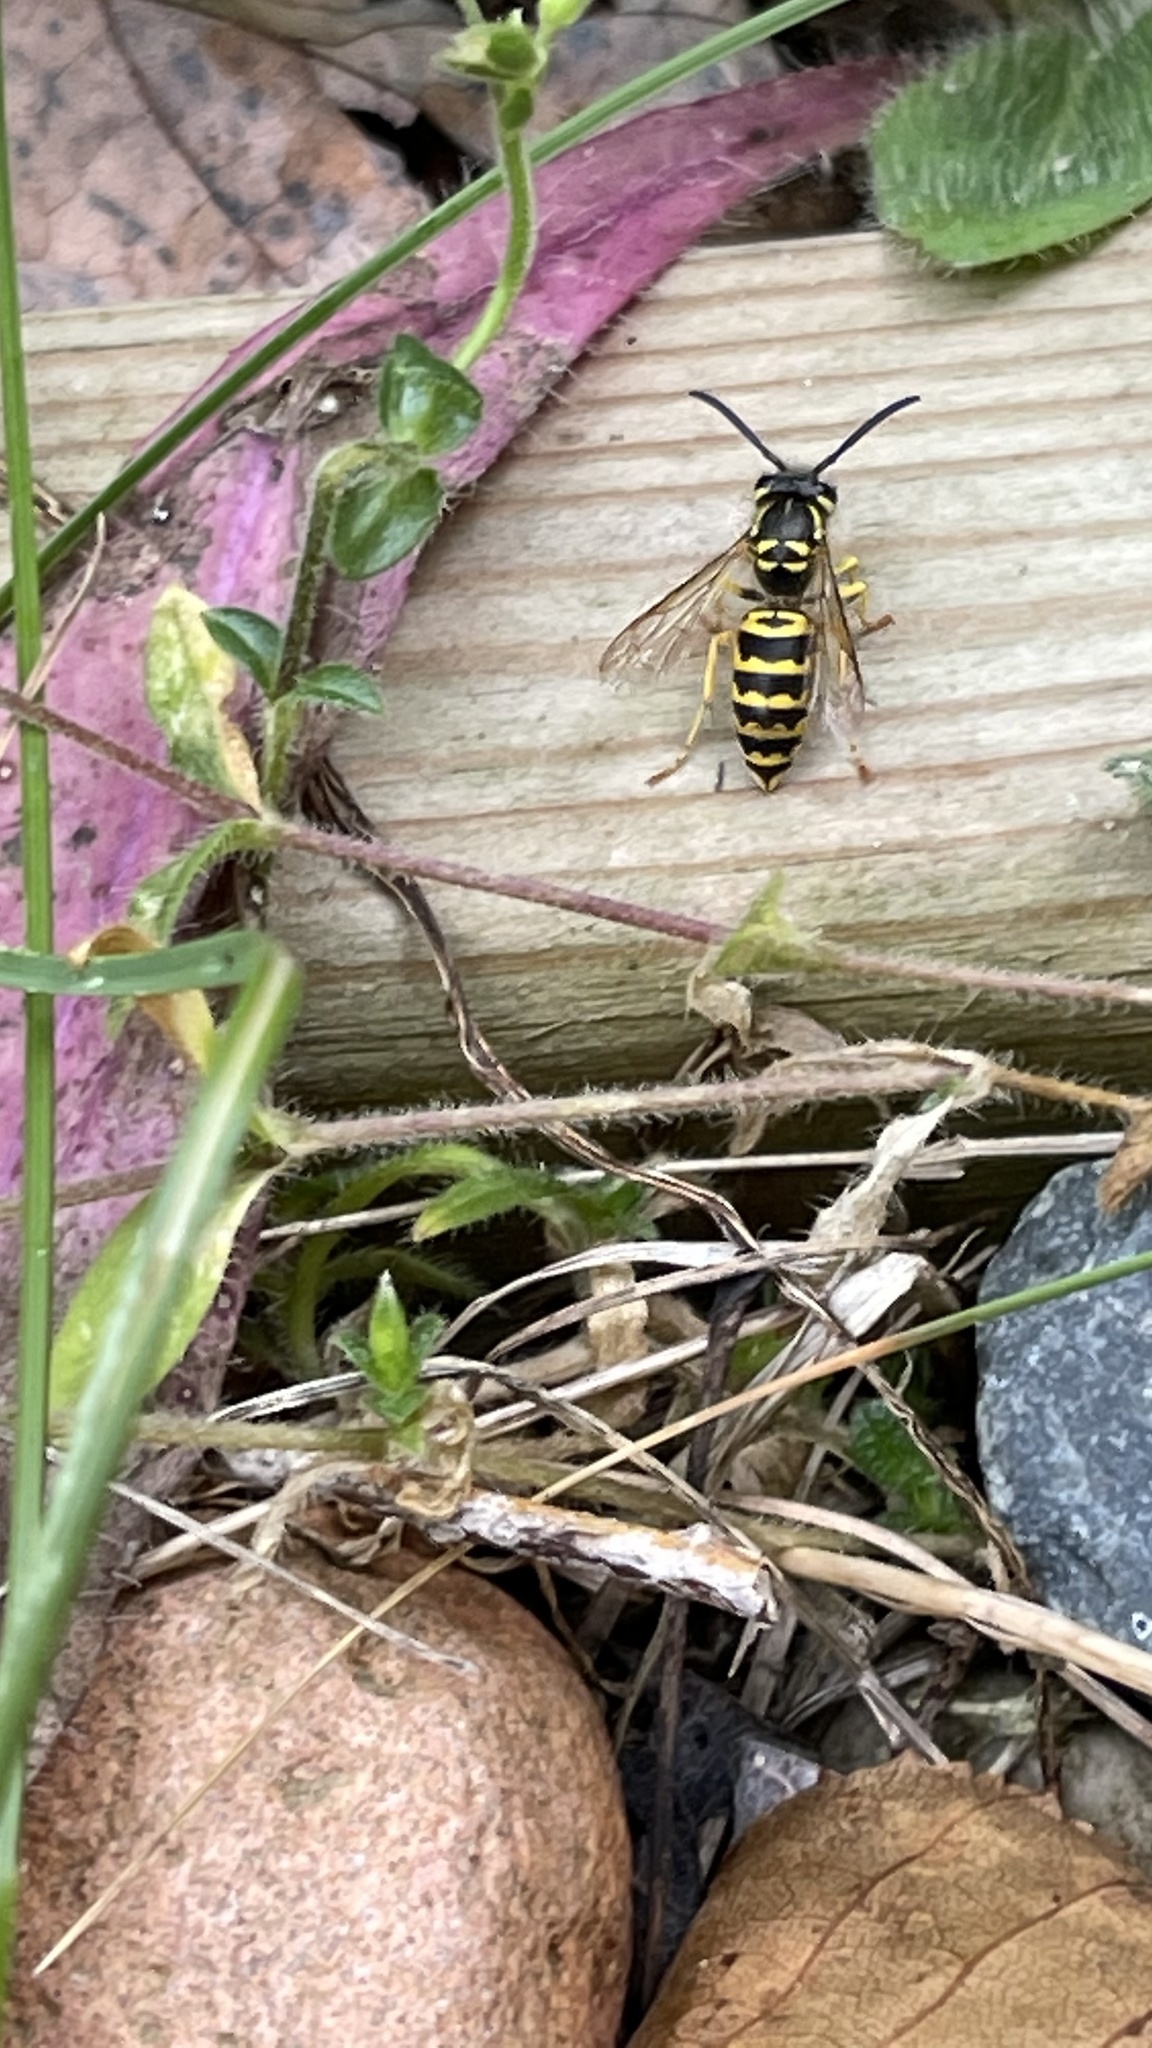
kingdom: Animalia
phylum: Arthropoda
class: Insecta
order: Hymenoptera
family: Vespidae
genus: Vespula
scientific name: Vespula maculifrons
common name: Eastern yellowjacket
